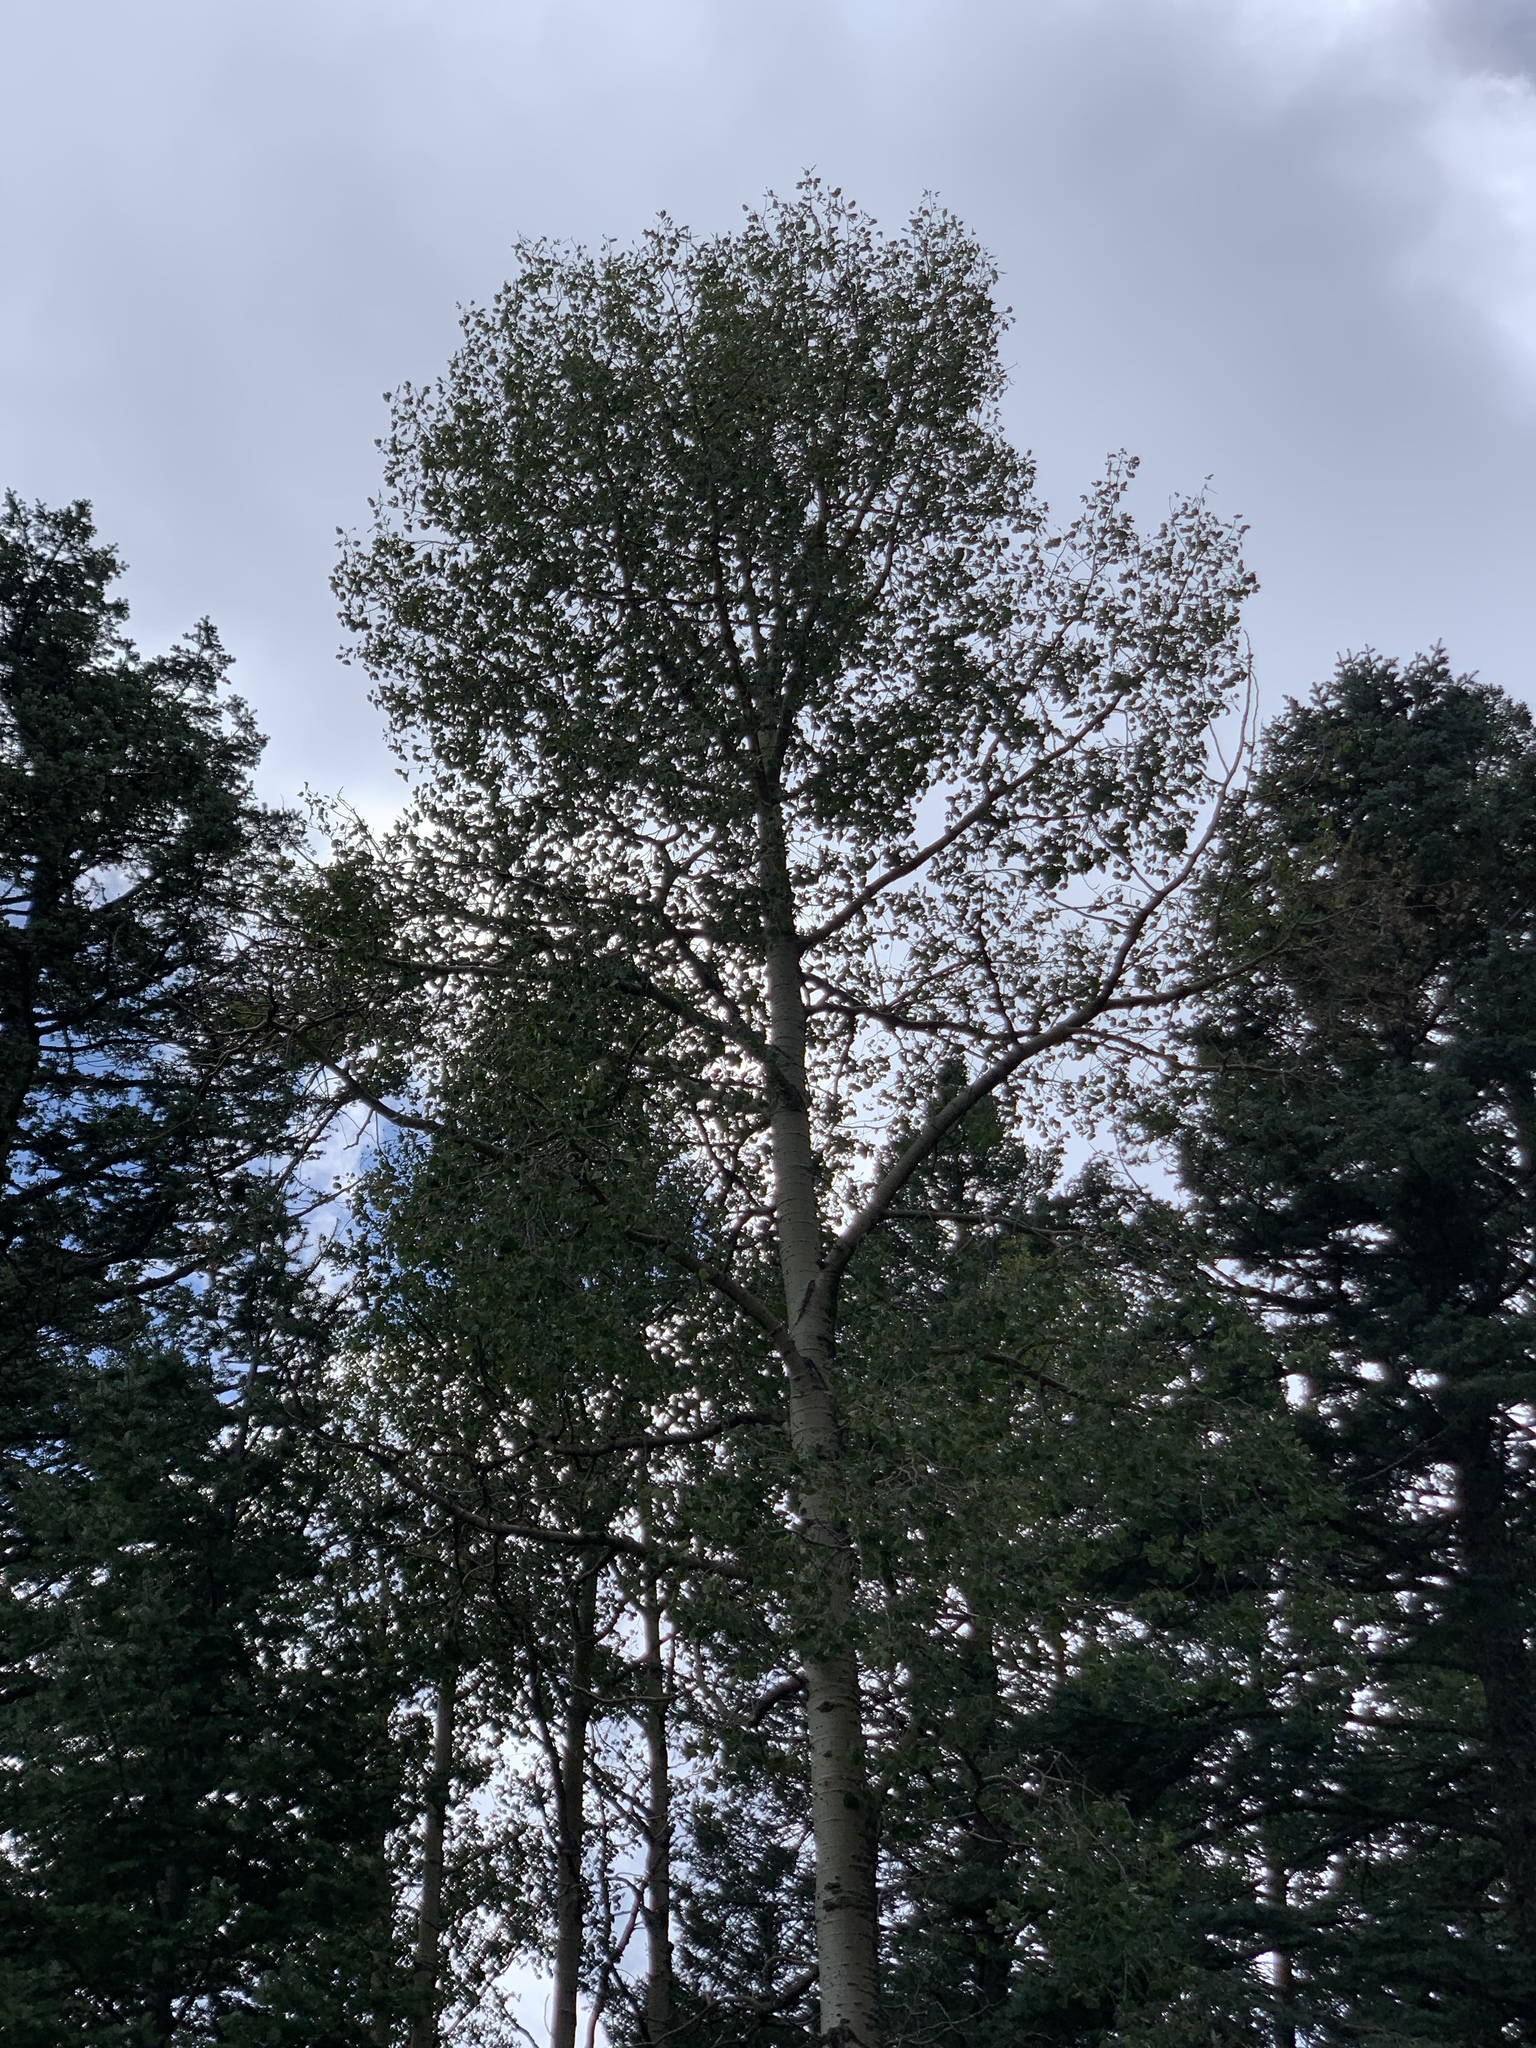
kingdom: Plantae
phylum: Tracheophyta
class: Magnoliopsida
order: Malpighiales
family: Salicaceae
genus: Populus
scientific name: Populus tremuloides
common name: Quaking aspen
